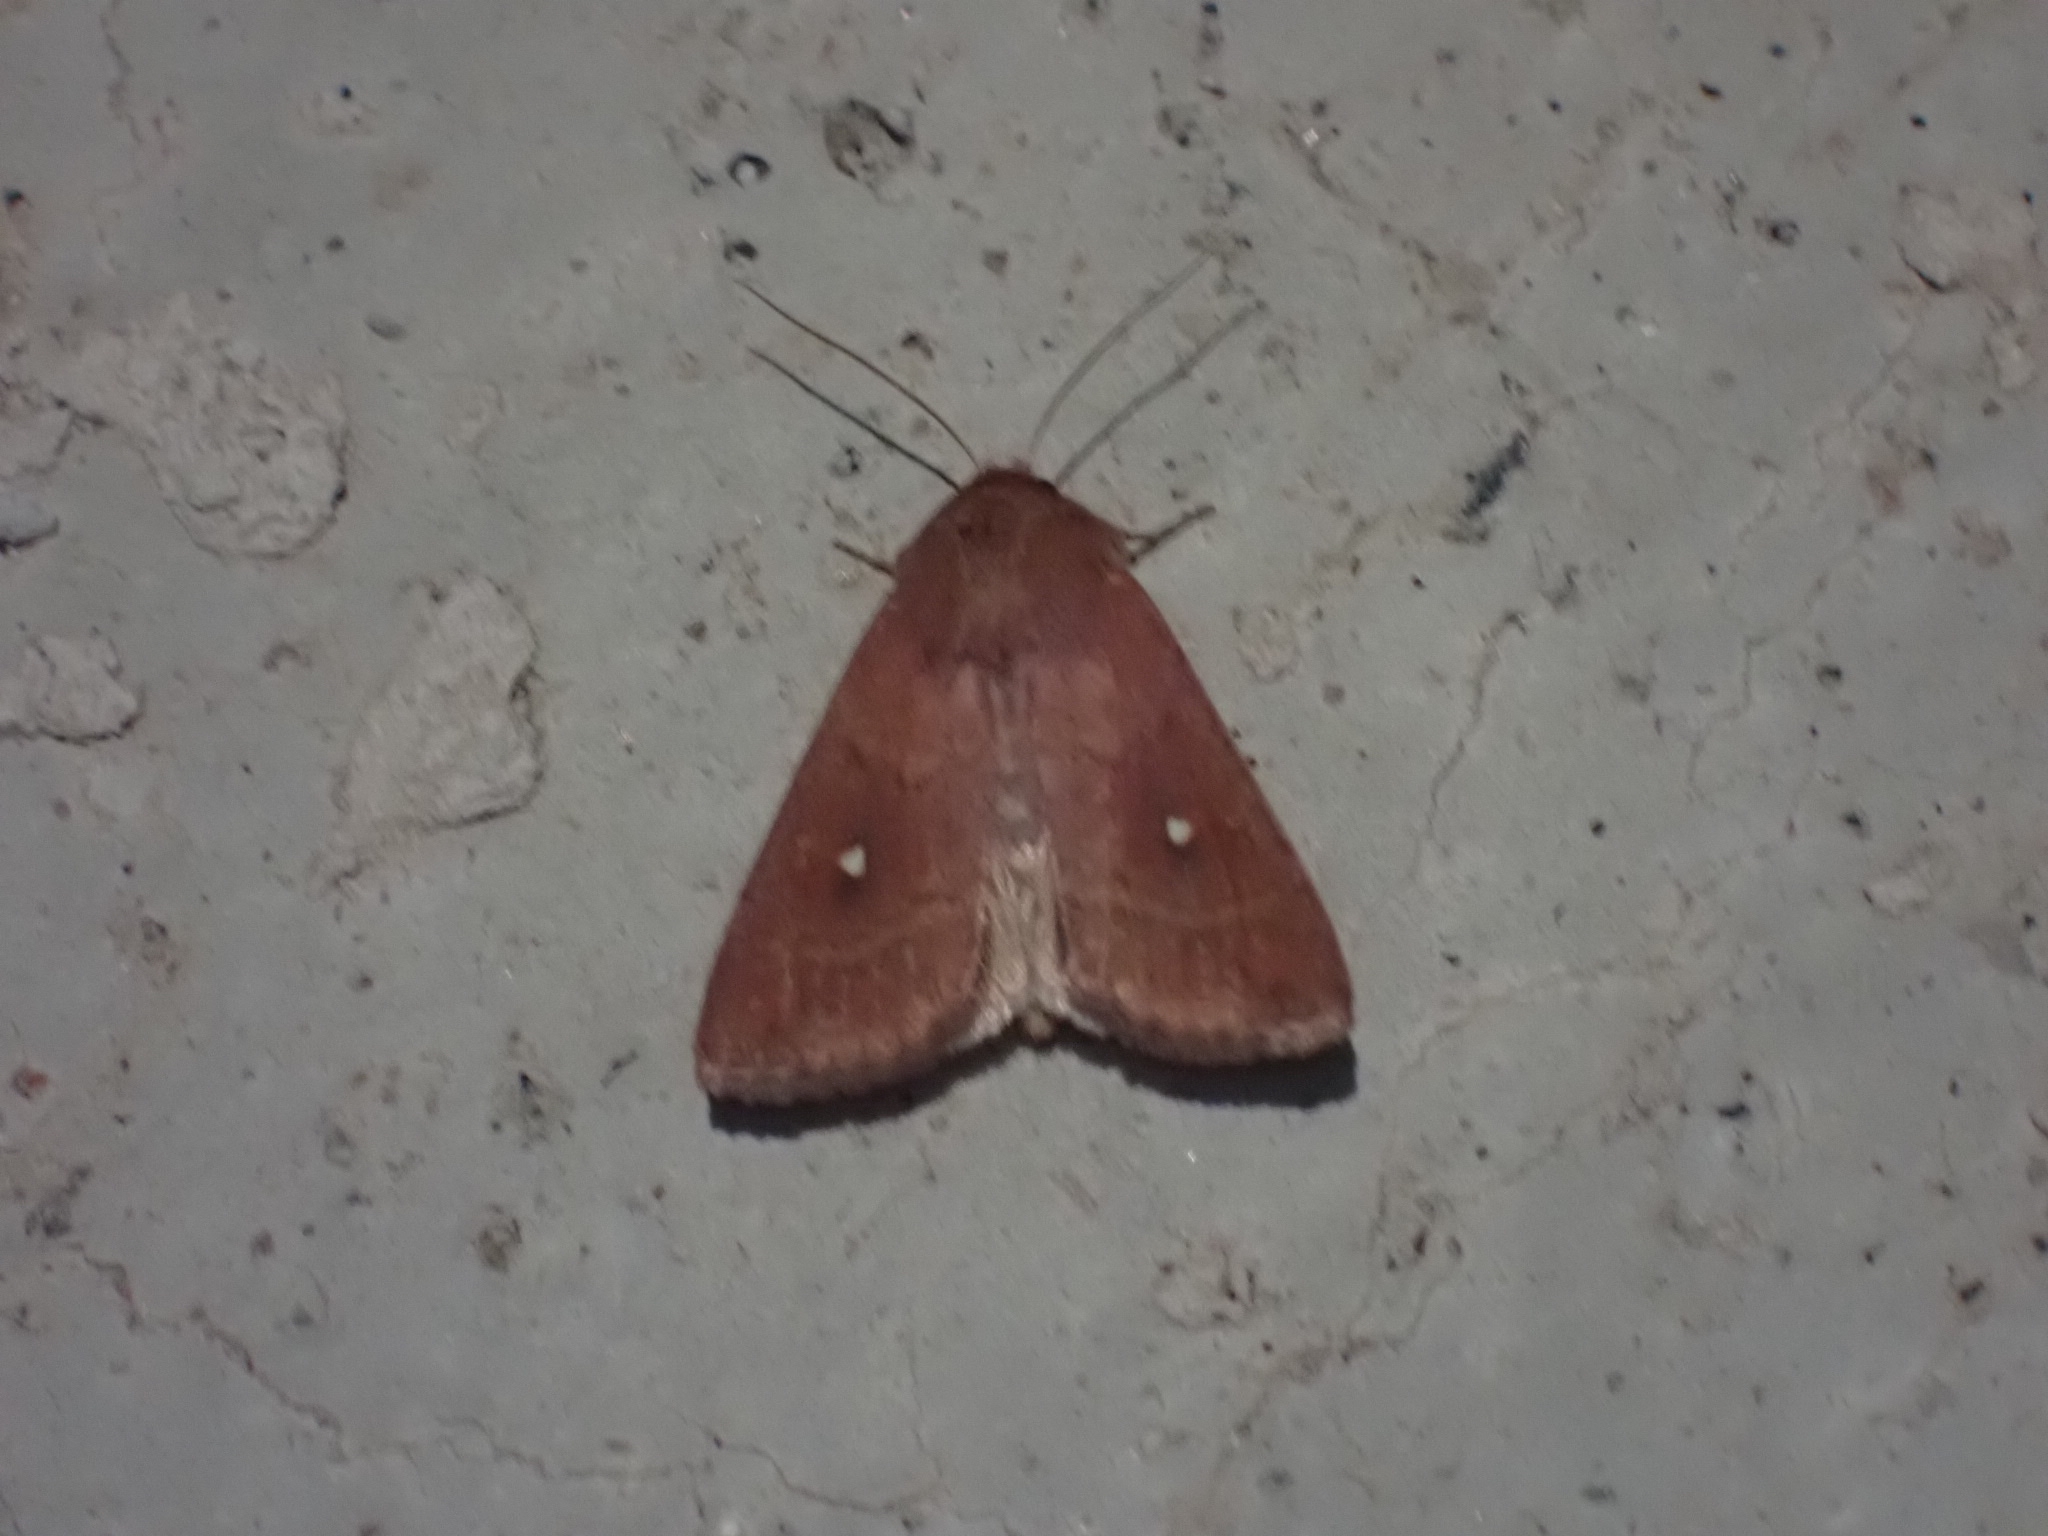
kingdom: Animalia
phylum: Arthropoda
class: Insecta
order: Lepidoptera
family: Noctuidae
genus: Mythimna
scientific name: Mythimna albipuncta
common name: White-point
